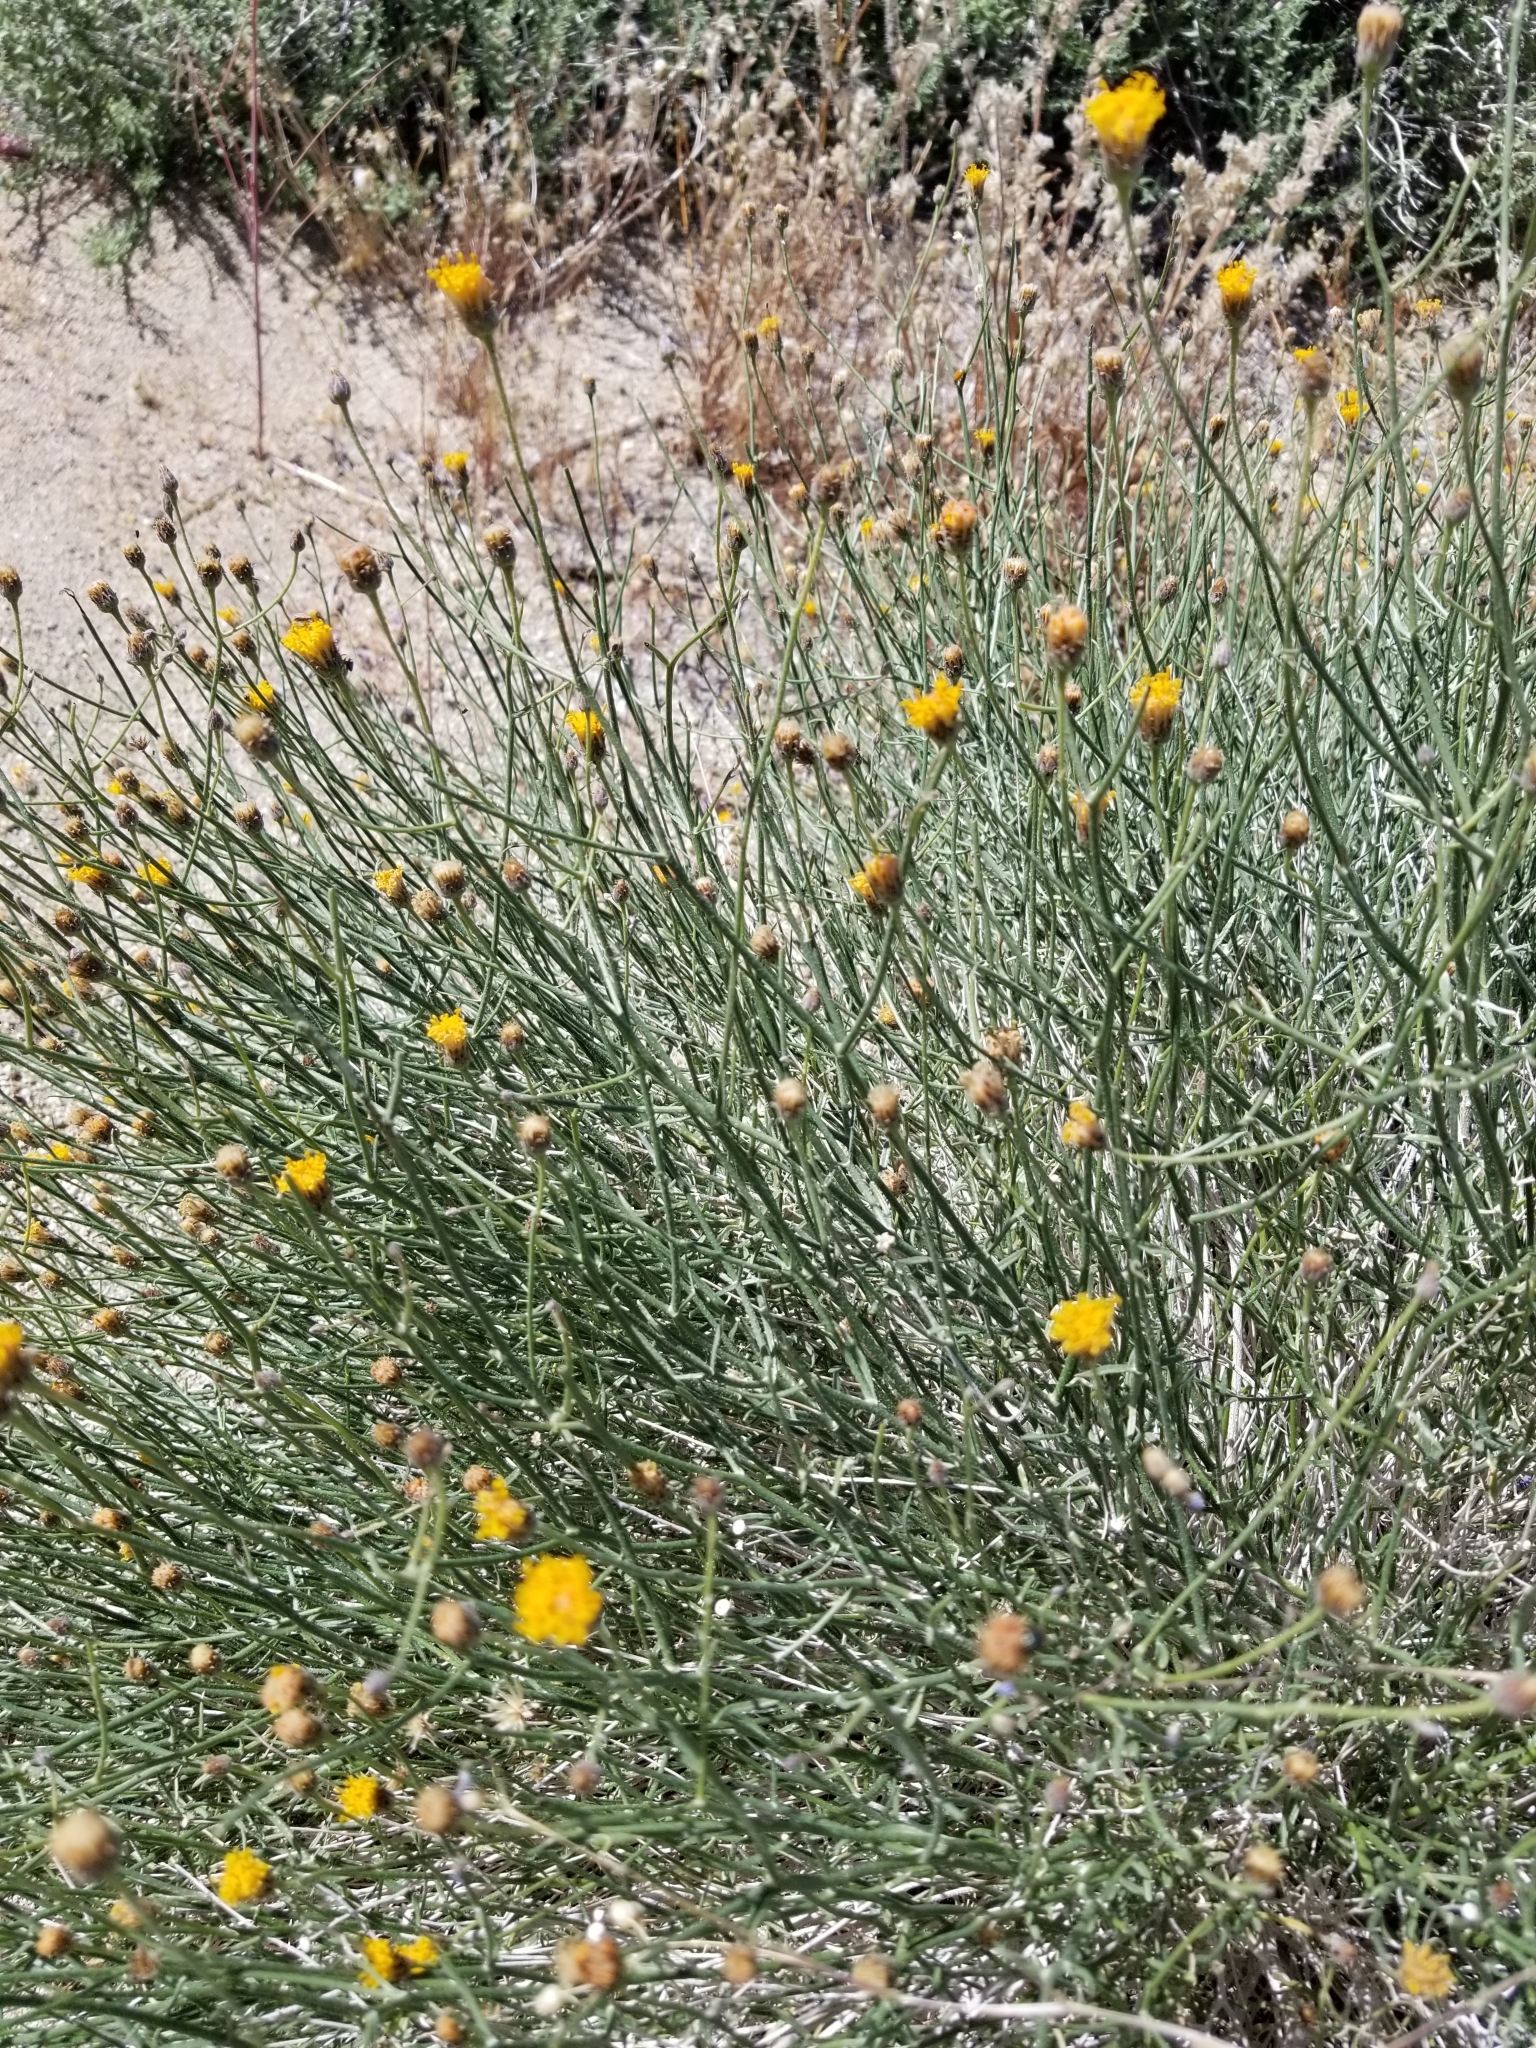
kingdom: Plantae
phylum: Tracheophyta
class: Magnoliopsida
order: Asterales
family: Asteraceae
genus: Bebbia
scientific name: Bebbia juncea
